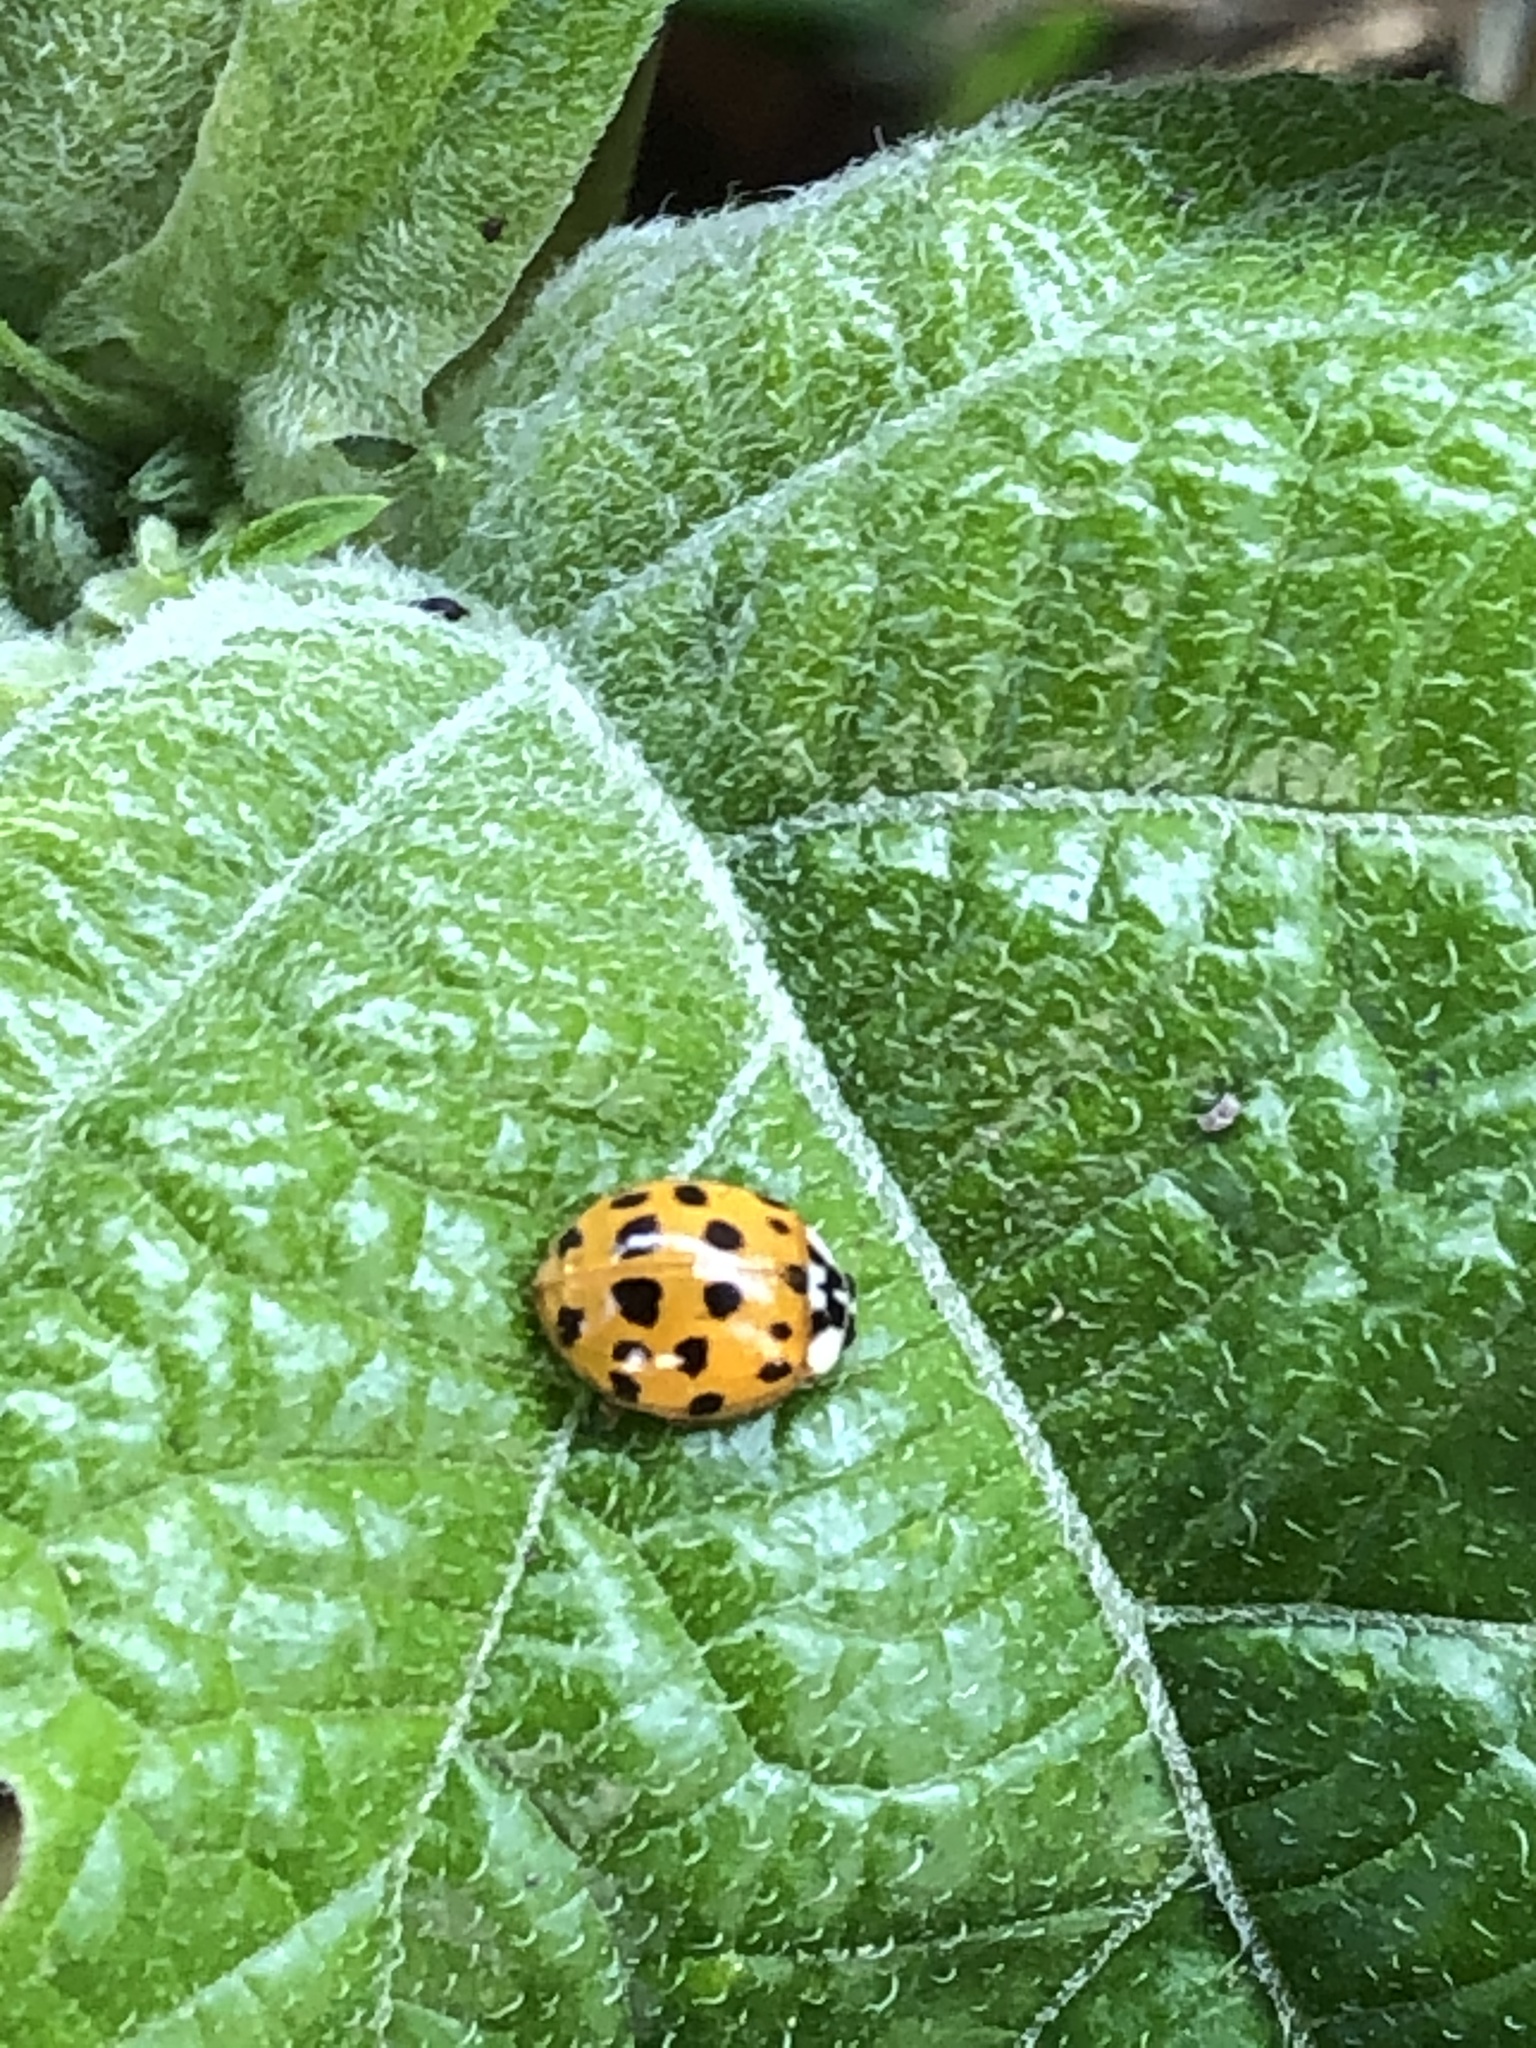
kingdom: Animalia
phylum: Arthropoda
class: Insecta
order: Coleoptera
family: Coccinellidae
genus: Harmonia
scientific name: Harmonia axyridis
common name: Harlequin ladybird
